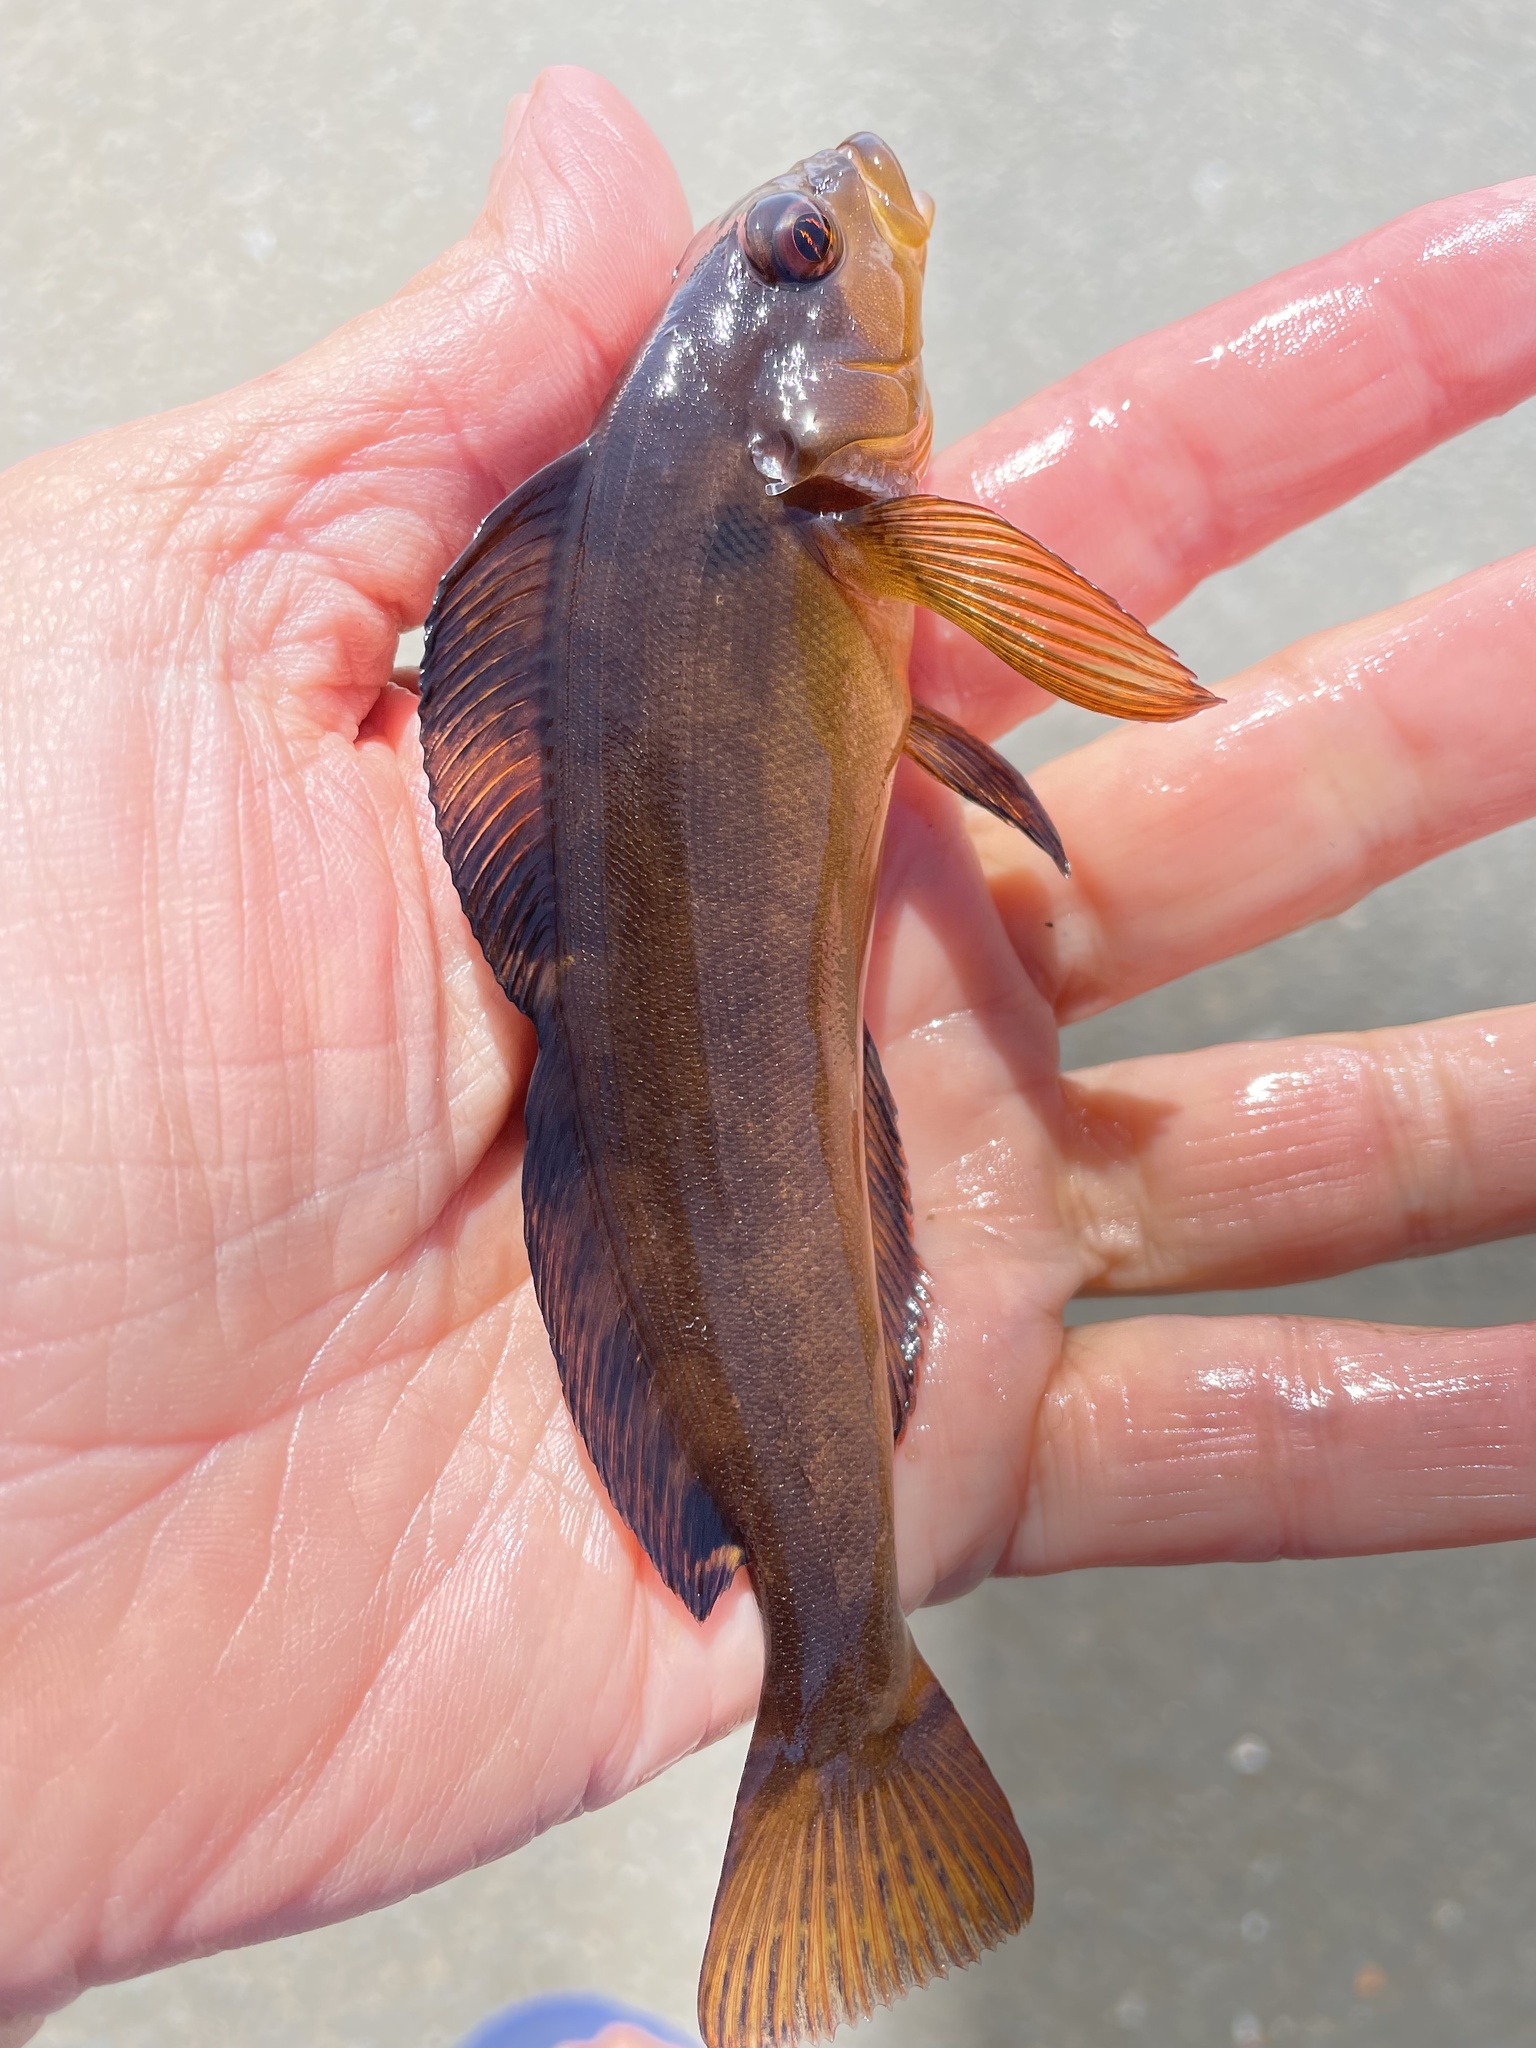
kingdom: Animalia
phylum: Chordata
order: Scorpaeniformes
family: Hexagrammidae
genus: Hexagrammos
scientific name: Hexagrammos decagrammus
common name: Kelp greenling
